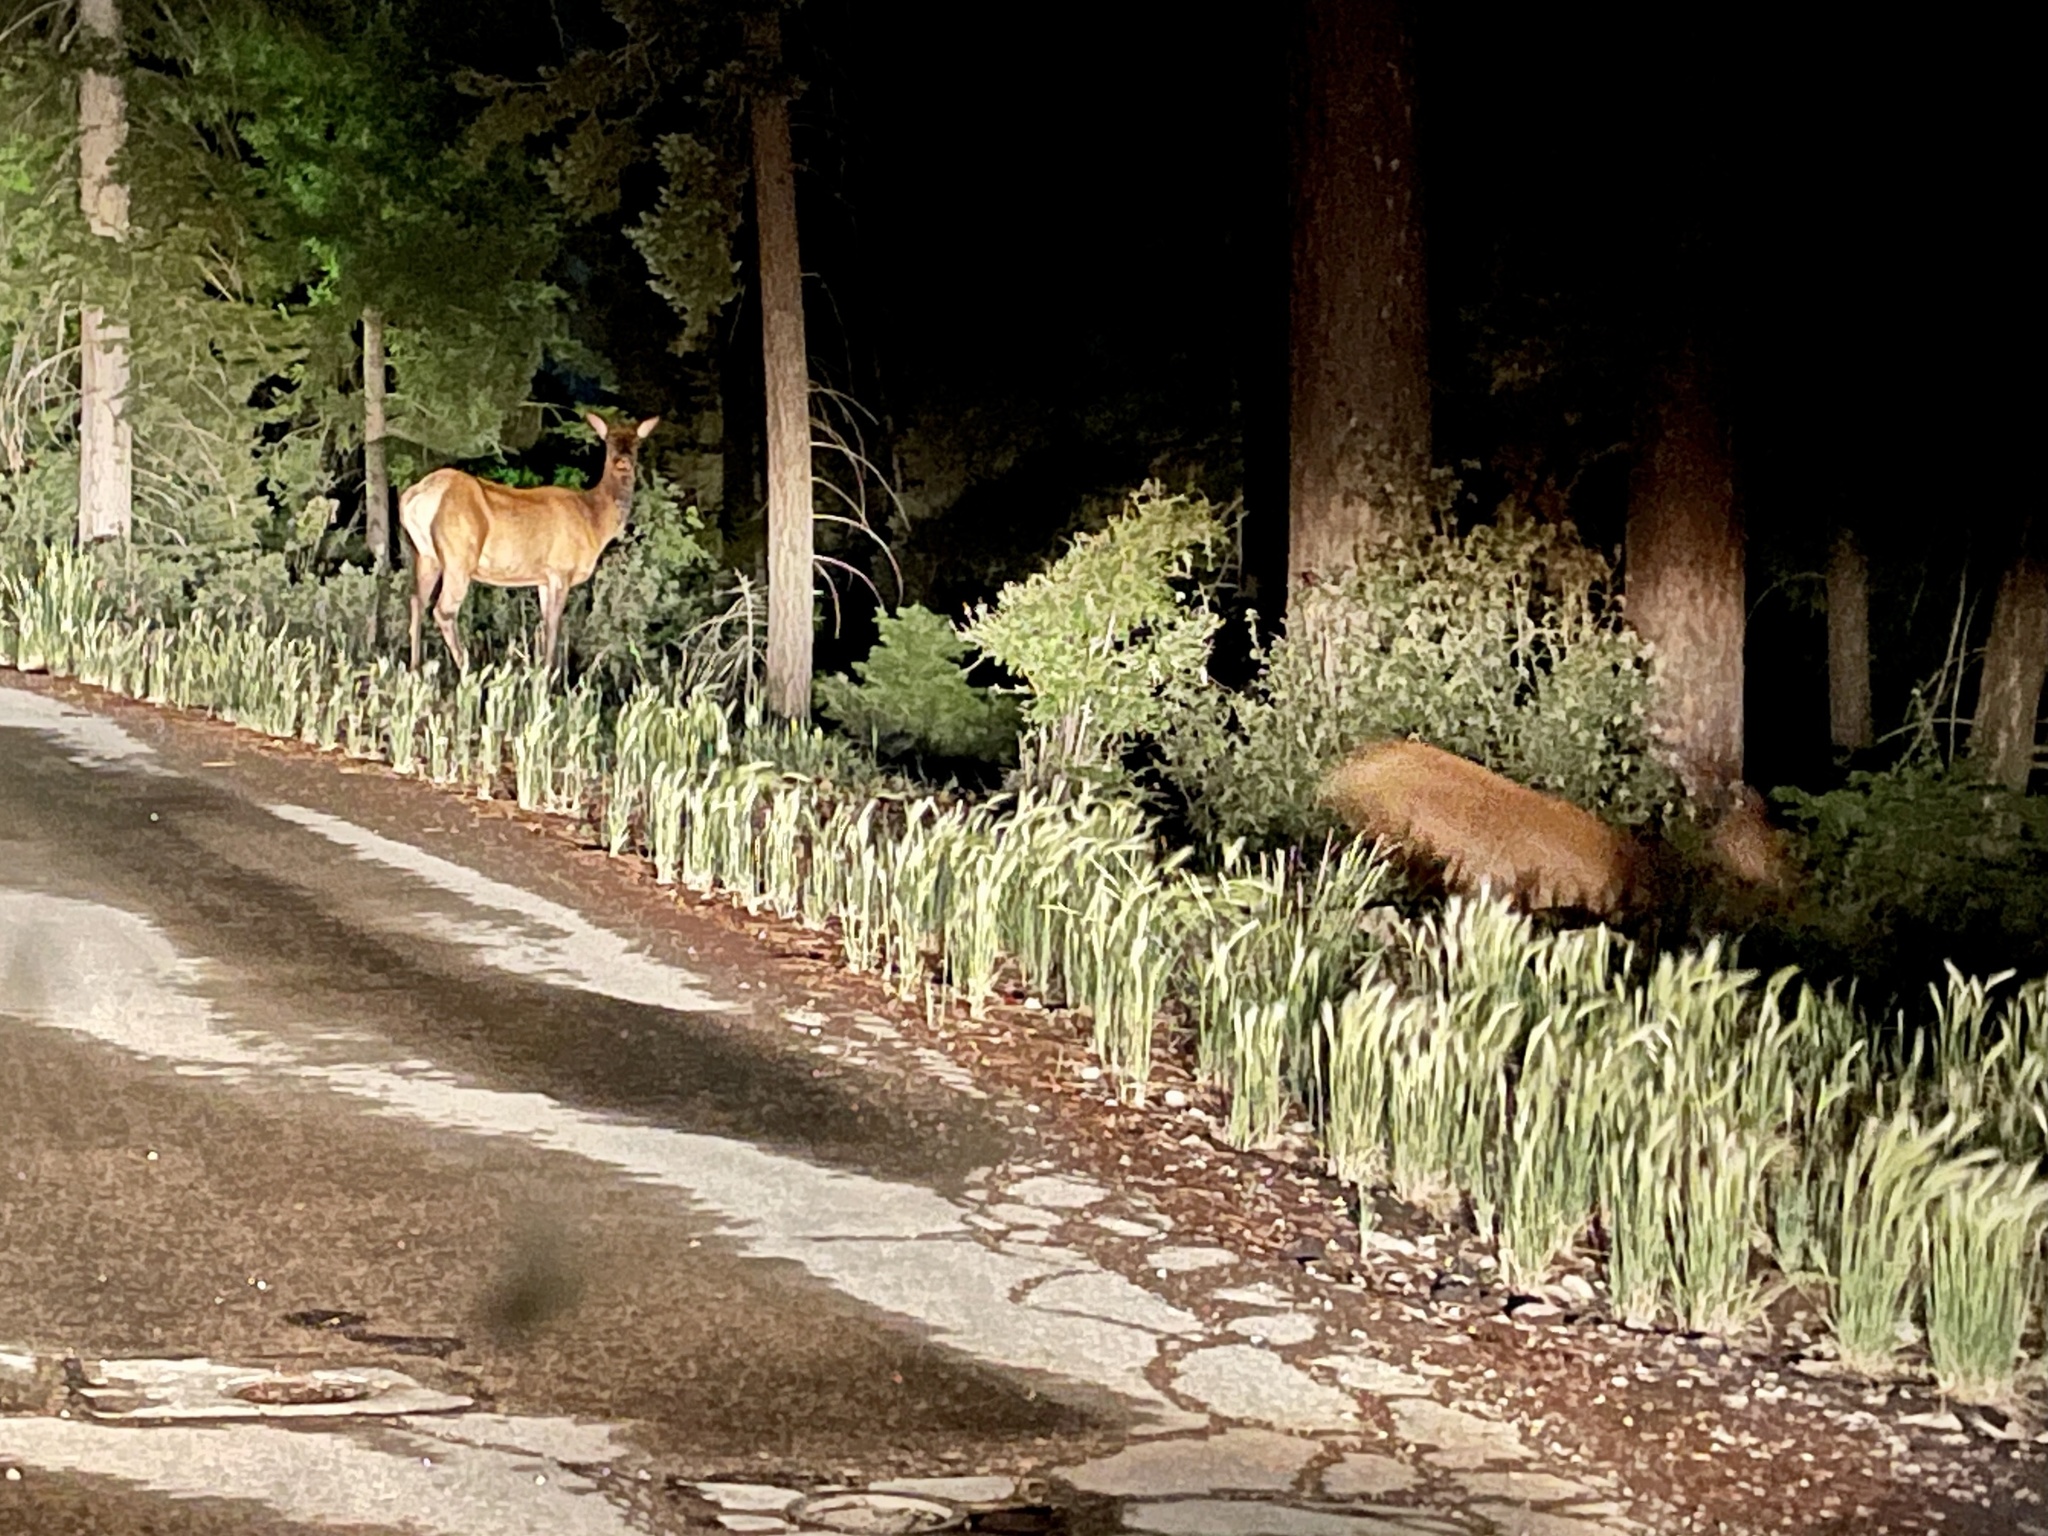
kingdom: Animalia
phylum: Chordata
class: Mammalia
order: Artiodactyla
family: Cervidae
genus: Cervus
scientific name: Cervus elaphus
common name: Red deer
